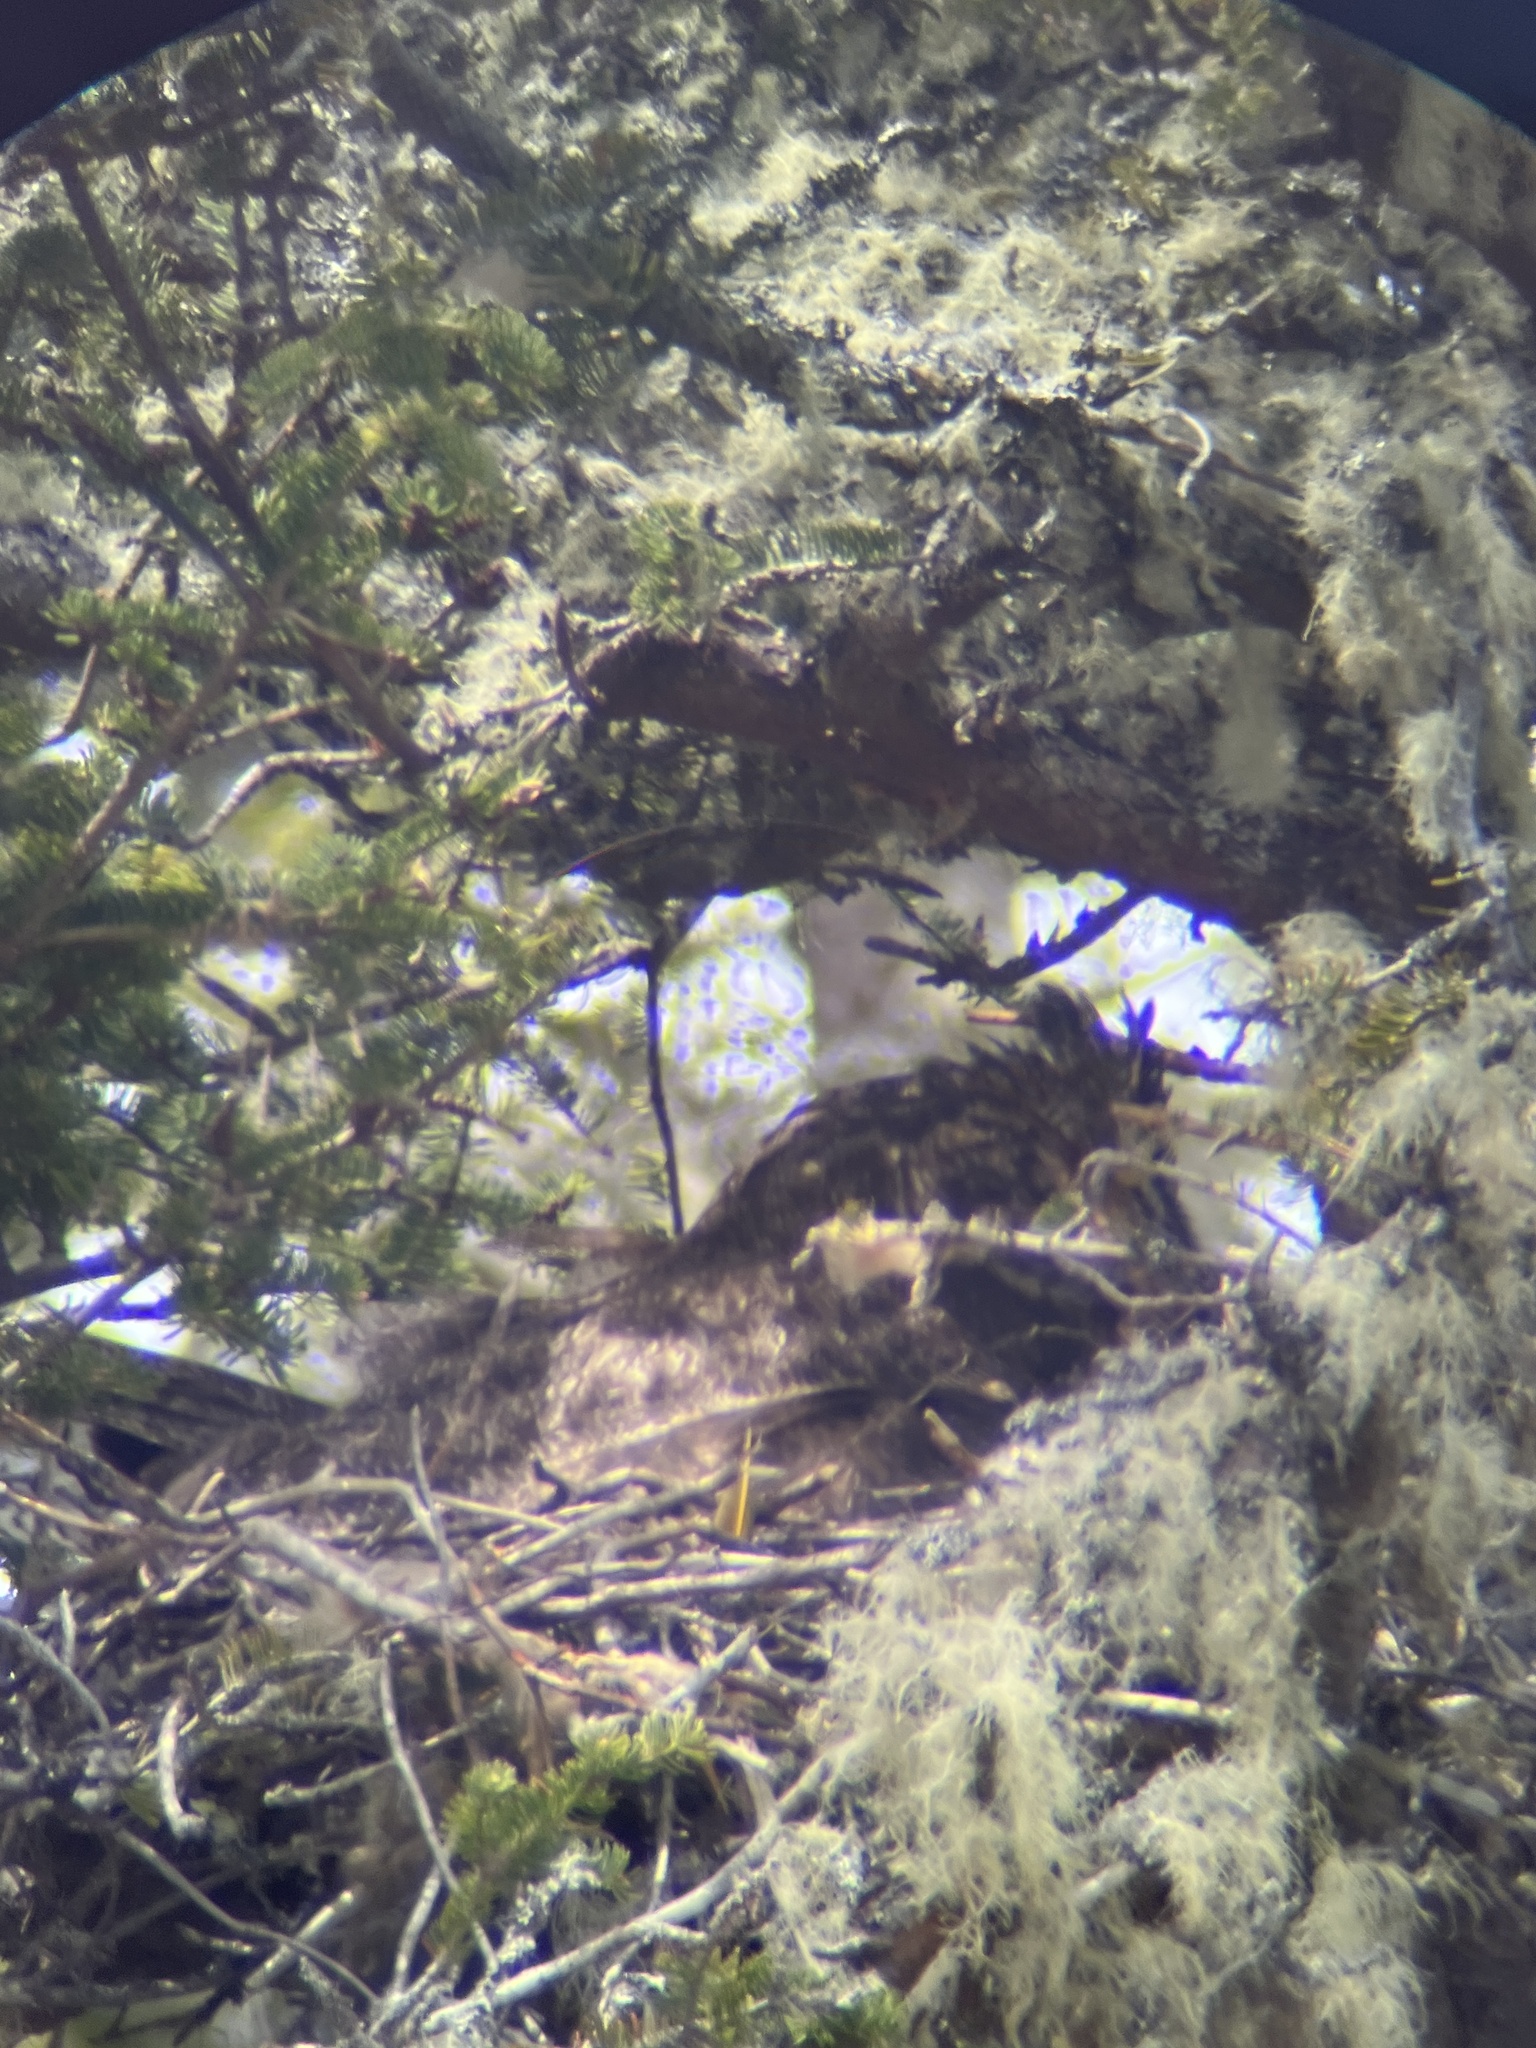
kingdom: Animalia
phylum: Chordata
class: Aves
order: Strigiformes
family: Strigidae
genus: Bubo
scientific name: Bubo virginianus
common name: Great horned owl
